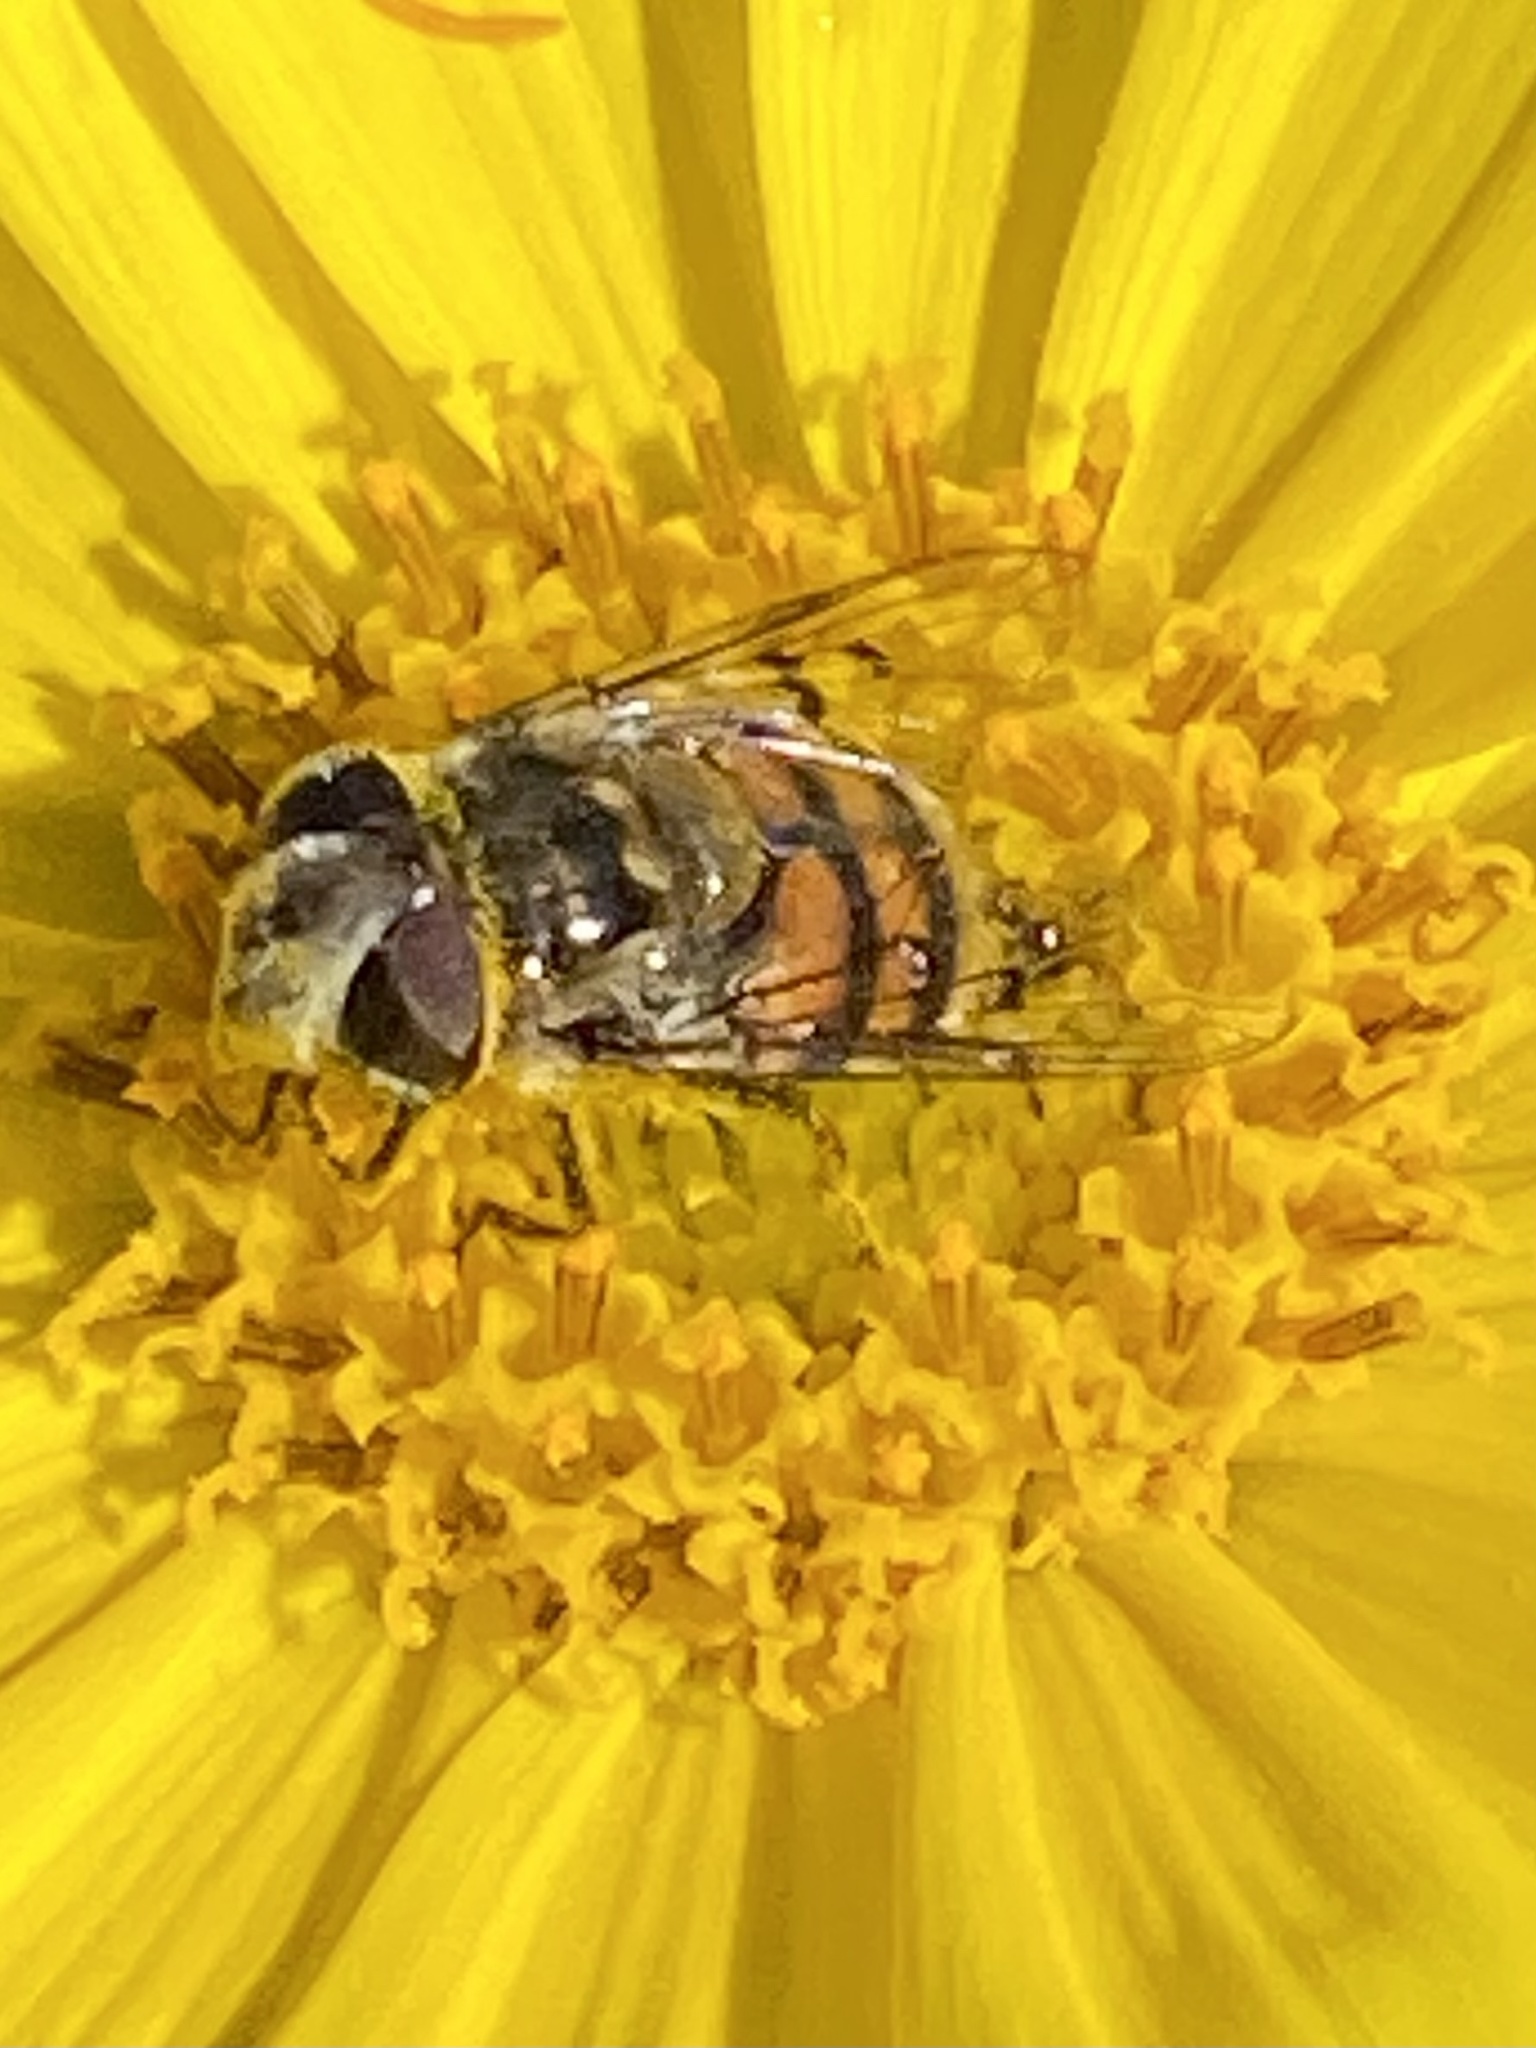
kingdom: Animalia
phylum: Arthropoda
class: Insecta
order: Diptera
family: Syrphidae
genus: Copestylum
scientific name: Copestylum avidum
